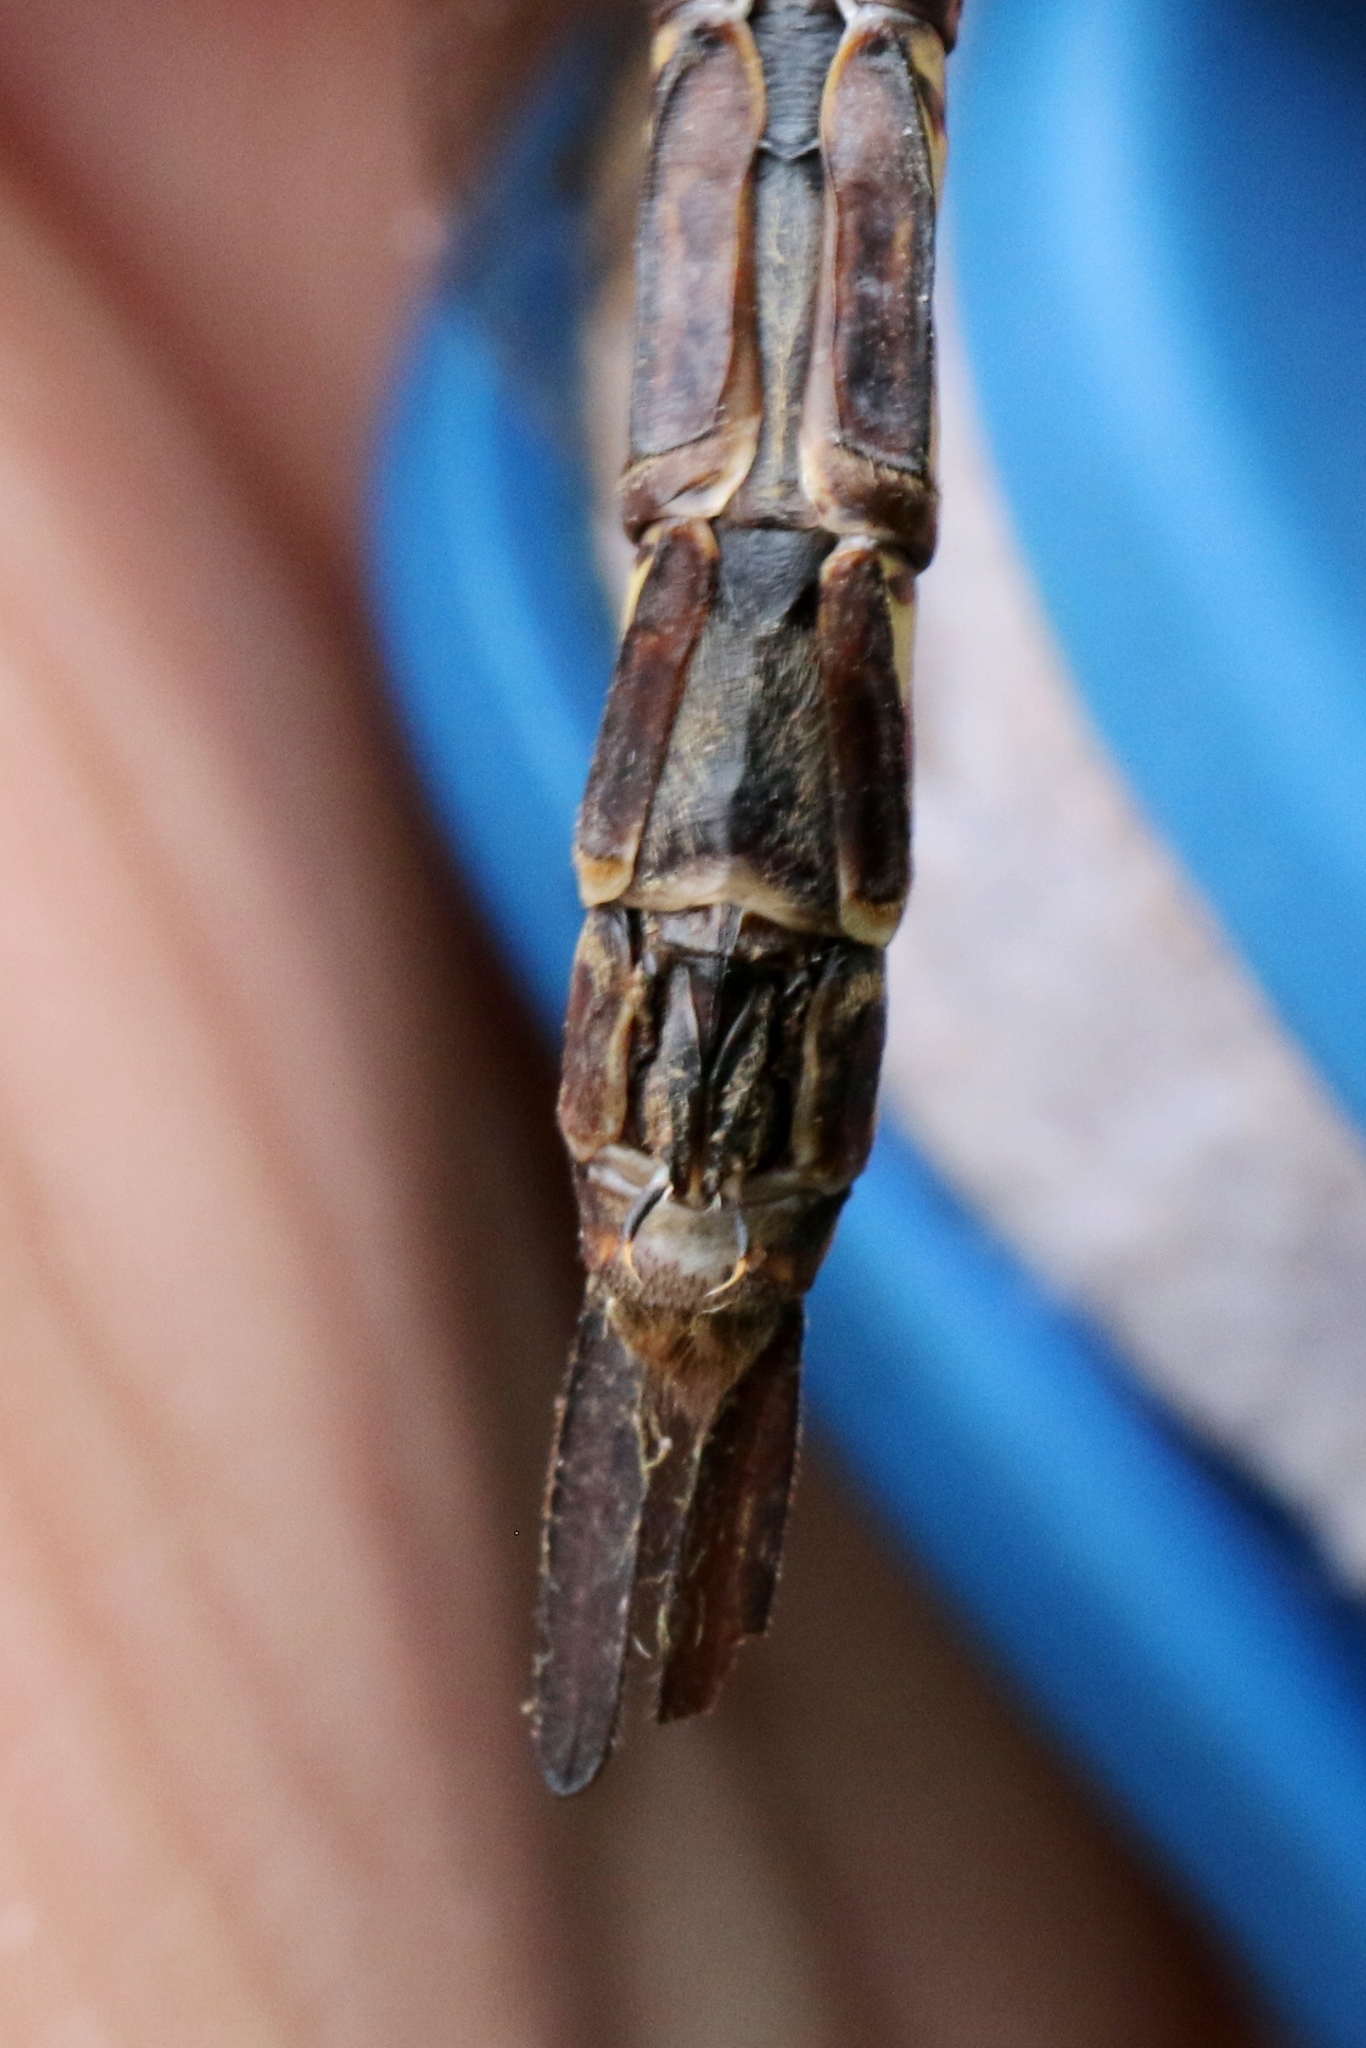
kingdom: Animalia
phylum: Arthropoda
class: Insecta
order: Odonata
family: Aeshnidae
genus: Aeshna
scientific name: Aeshna eremita
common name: Lake darner
